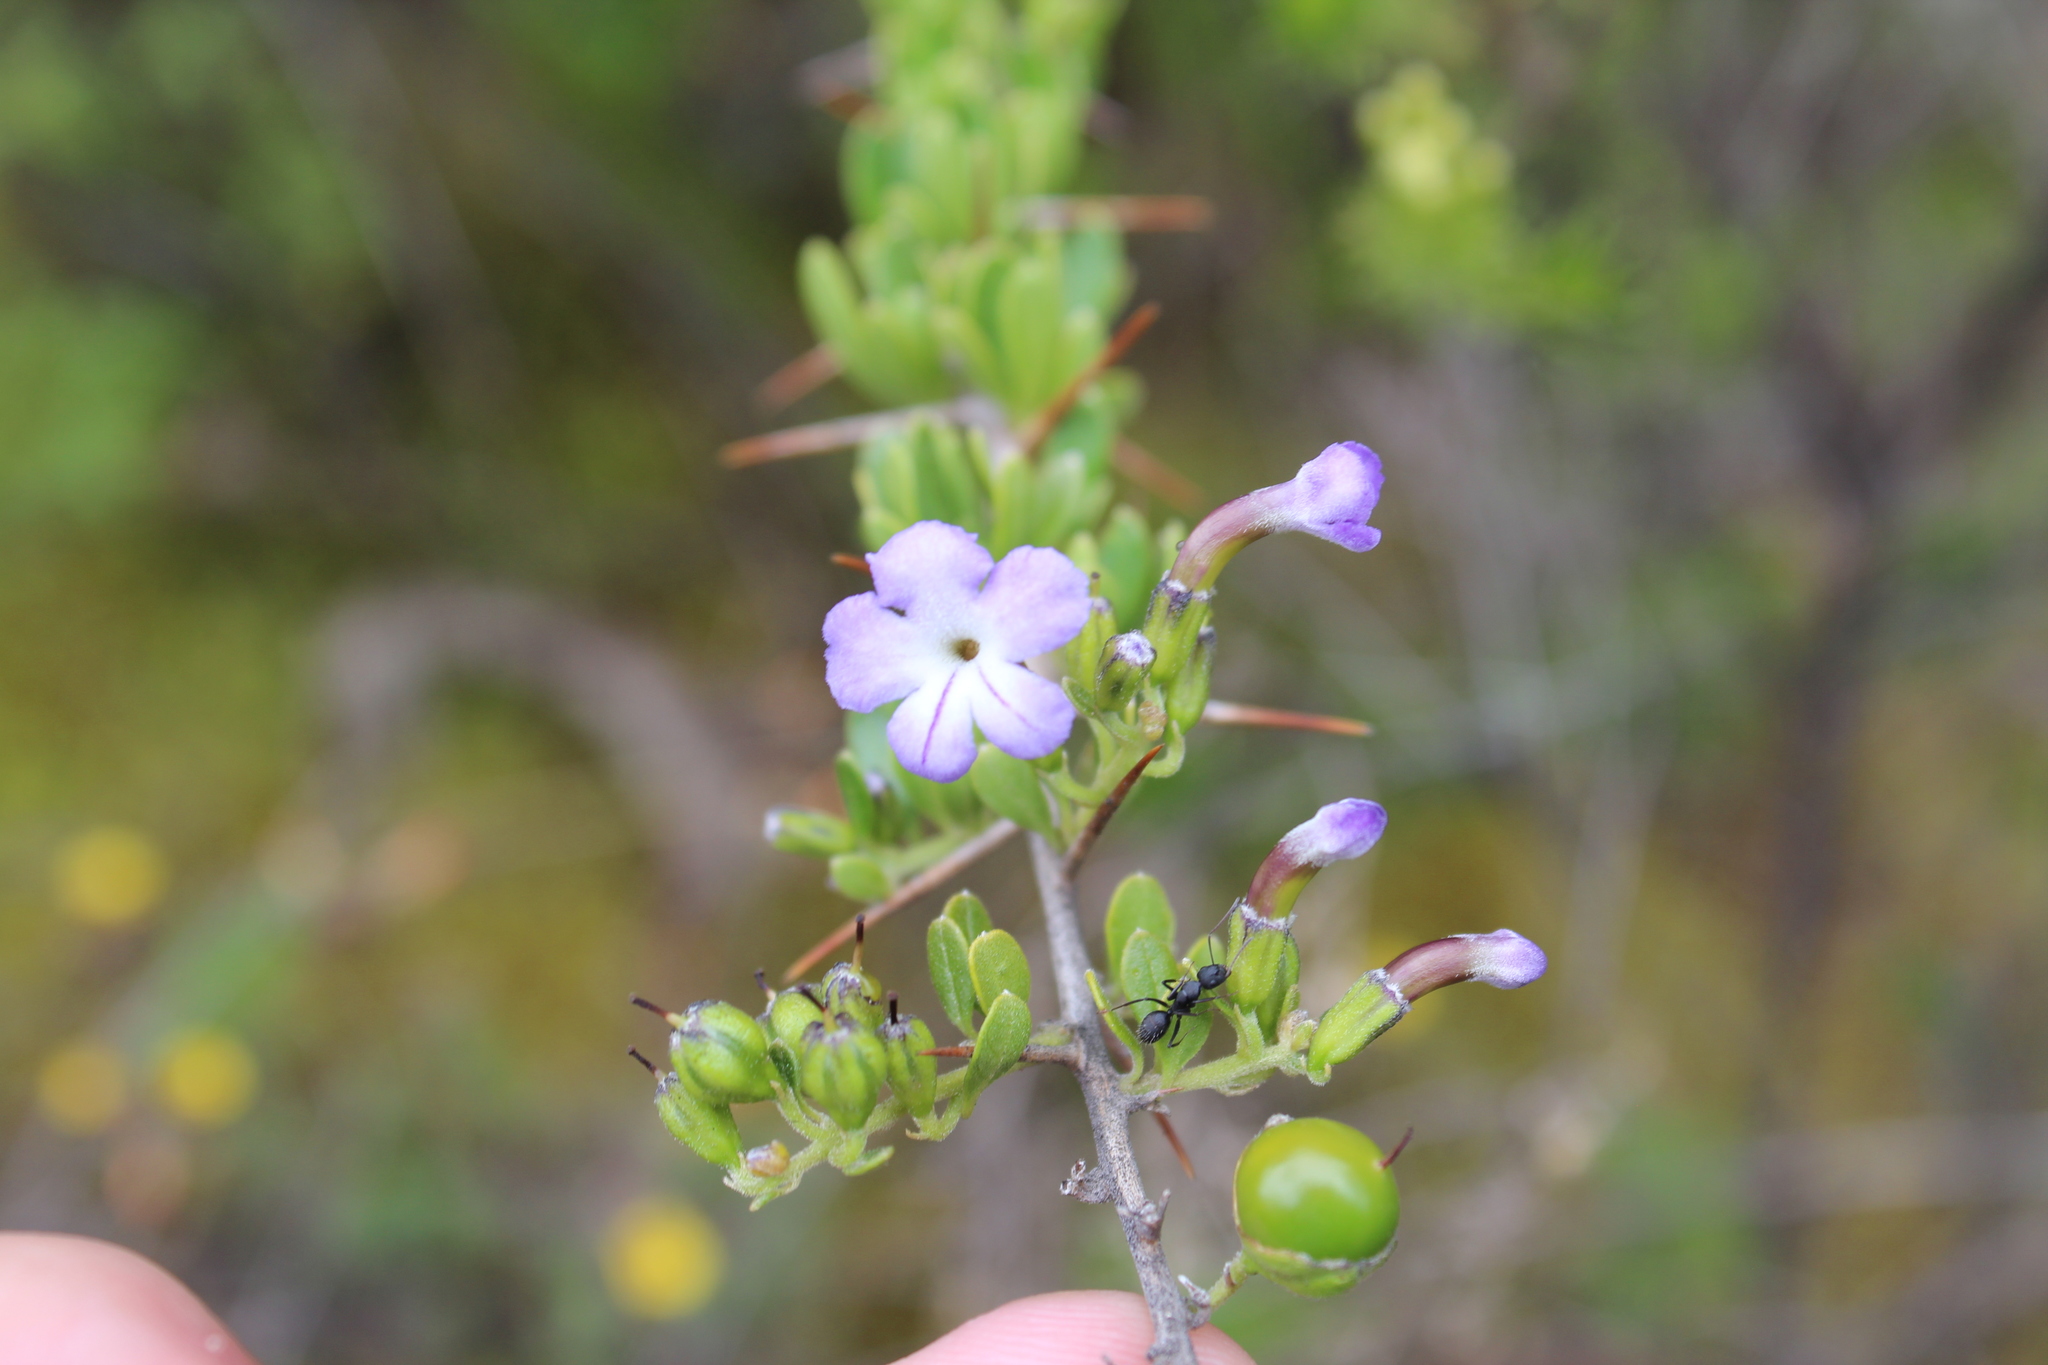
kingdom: Plantae
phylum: Tracheophyta
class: Magnoliopsida
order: Lamiales
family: Verbenaceae
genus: Duranta
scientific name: Duranta armata
